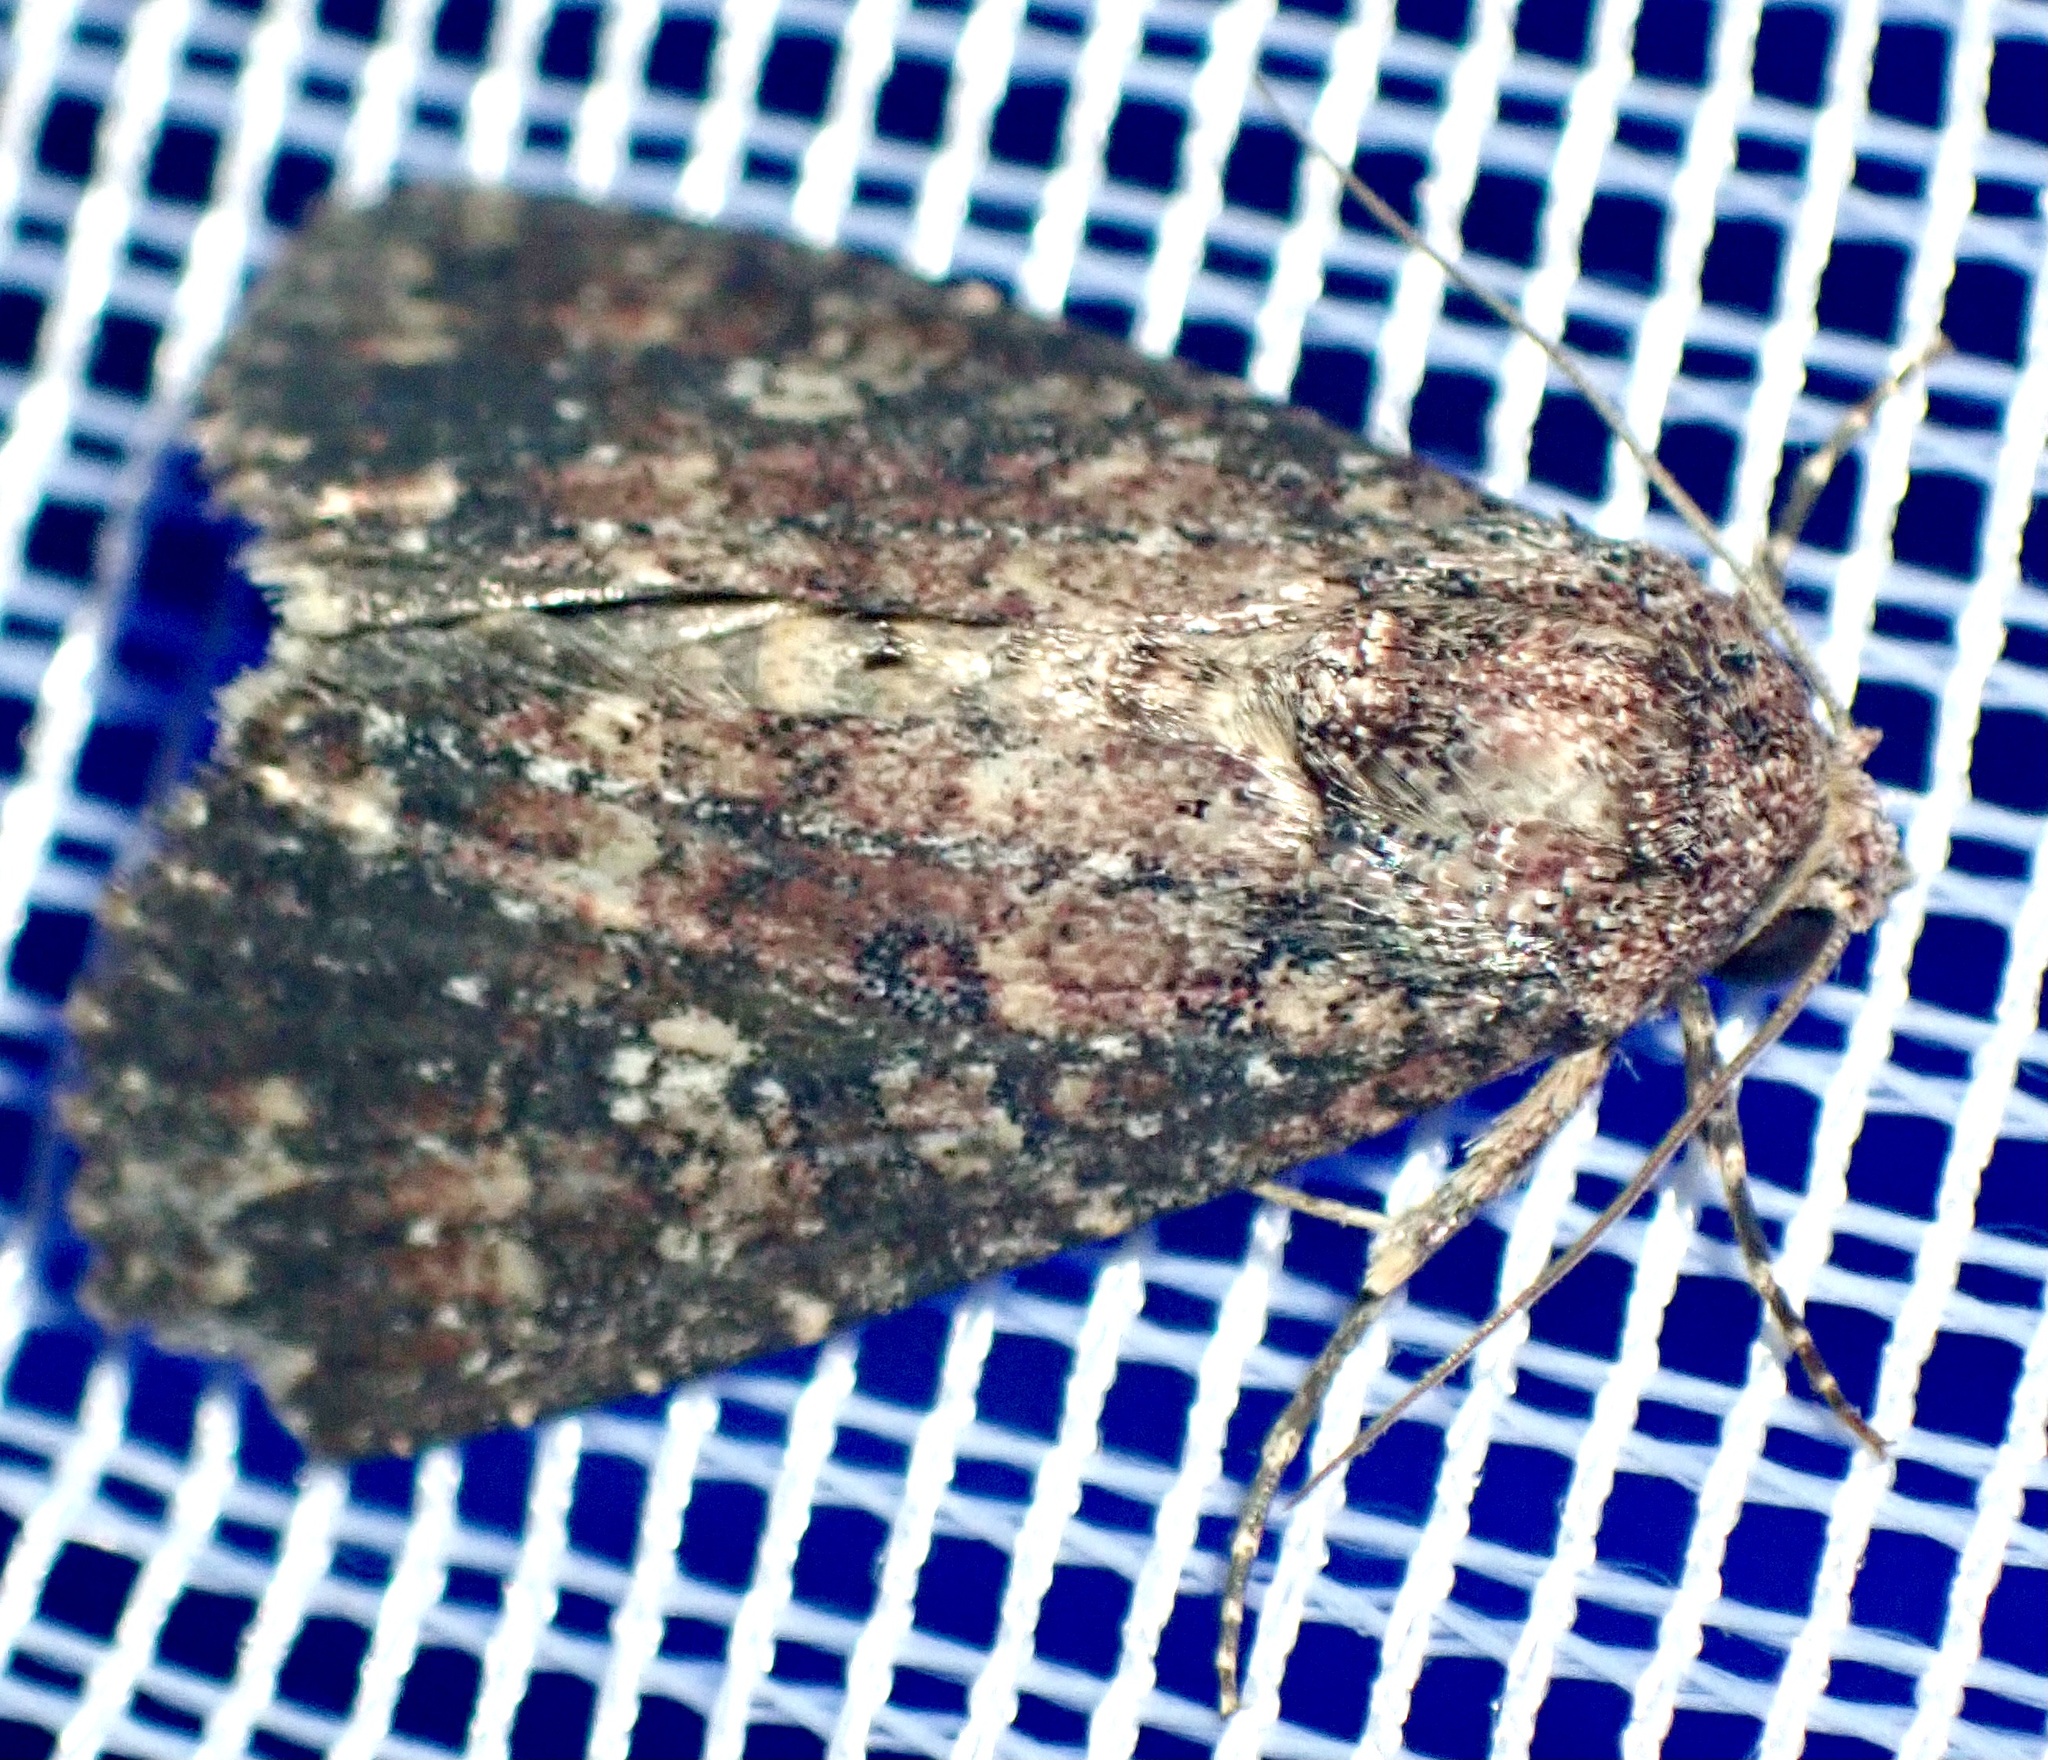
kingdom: Animalia
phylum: Arthropoda
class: Insecta
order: Lepidoptera
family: Noctuidae
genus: Condica
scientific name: Condica capensis
